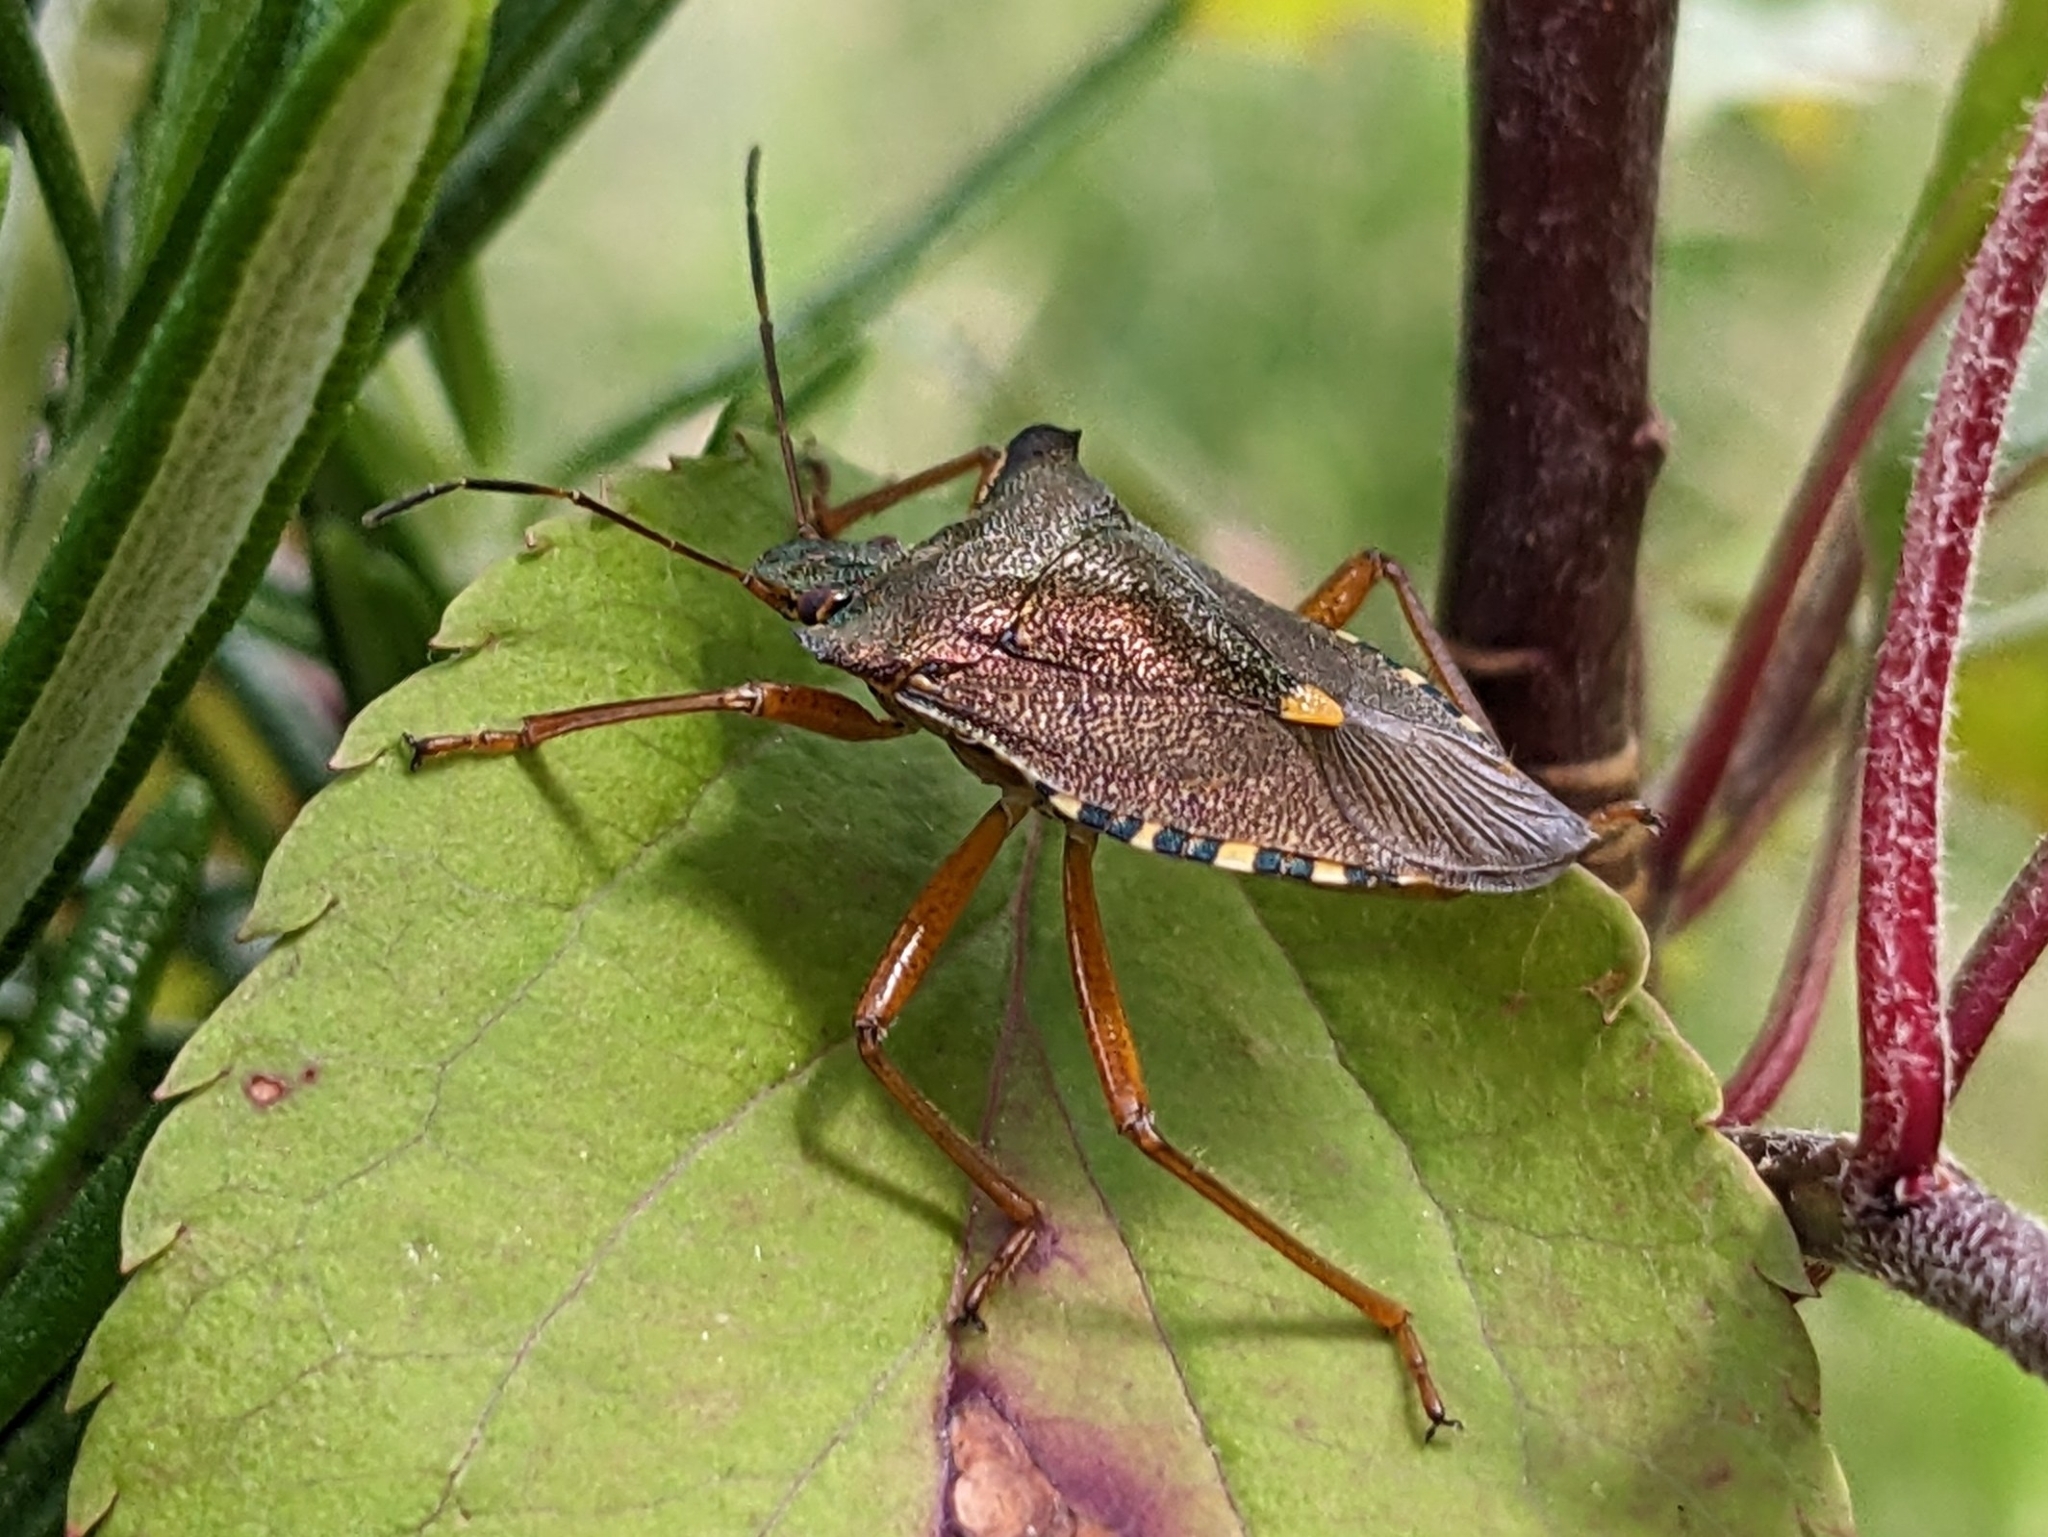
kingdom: Animalia
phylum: Arthropoda
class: Insecta
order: Hemiptera
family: Pentatomidae
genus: Pentatoma
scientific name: Pentatoma rufipes
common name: Forest bug
